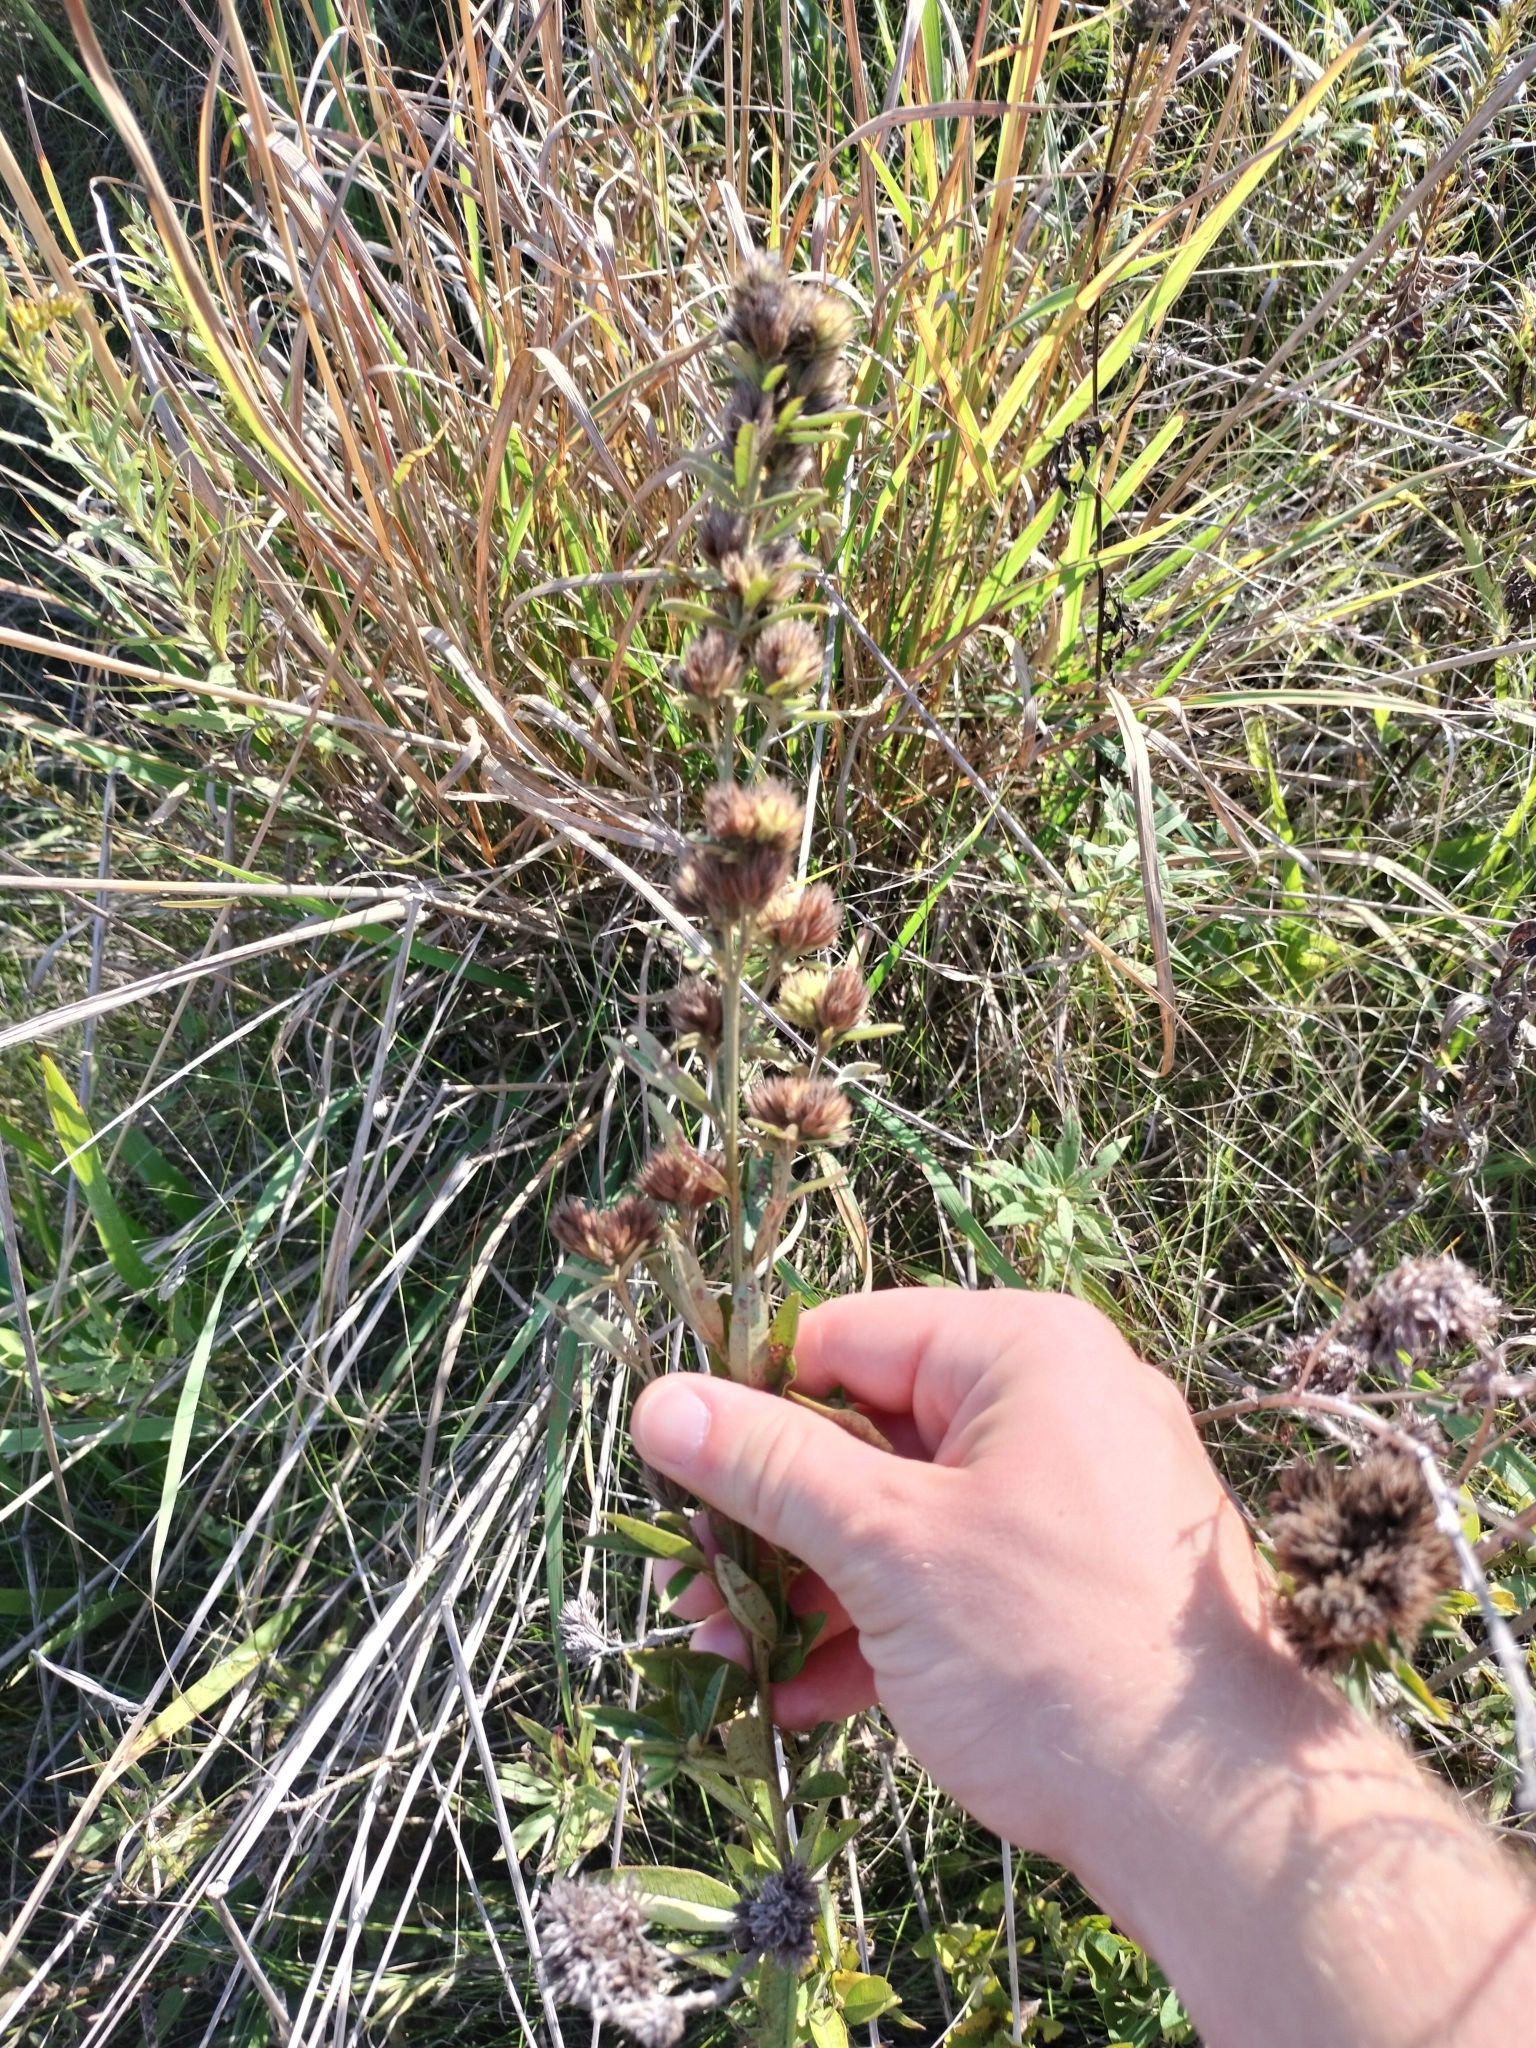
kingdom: Plantae
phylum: Tracheophyta
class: Magnoliopsida
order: Fabales
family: Fabaceae
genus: Lespedeza
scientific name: Lespedeza capitata
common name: Dusty clover
